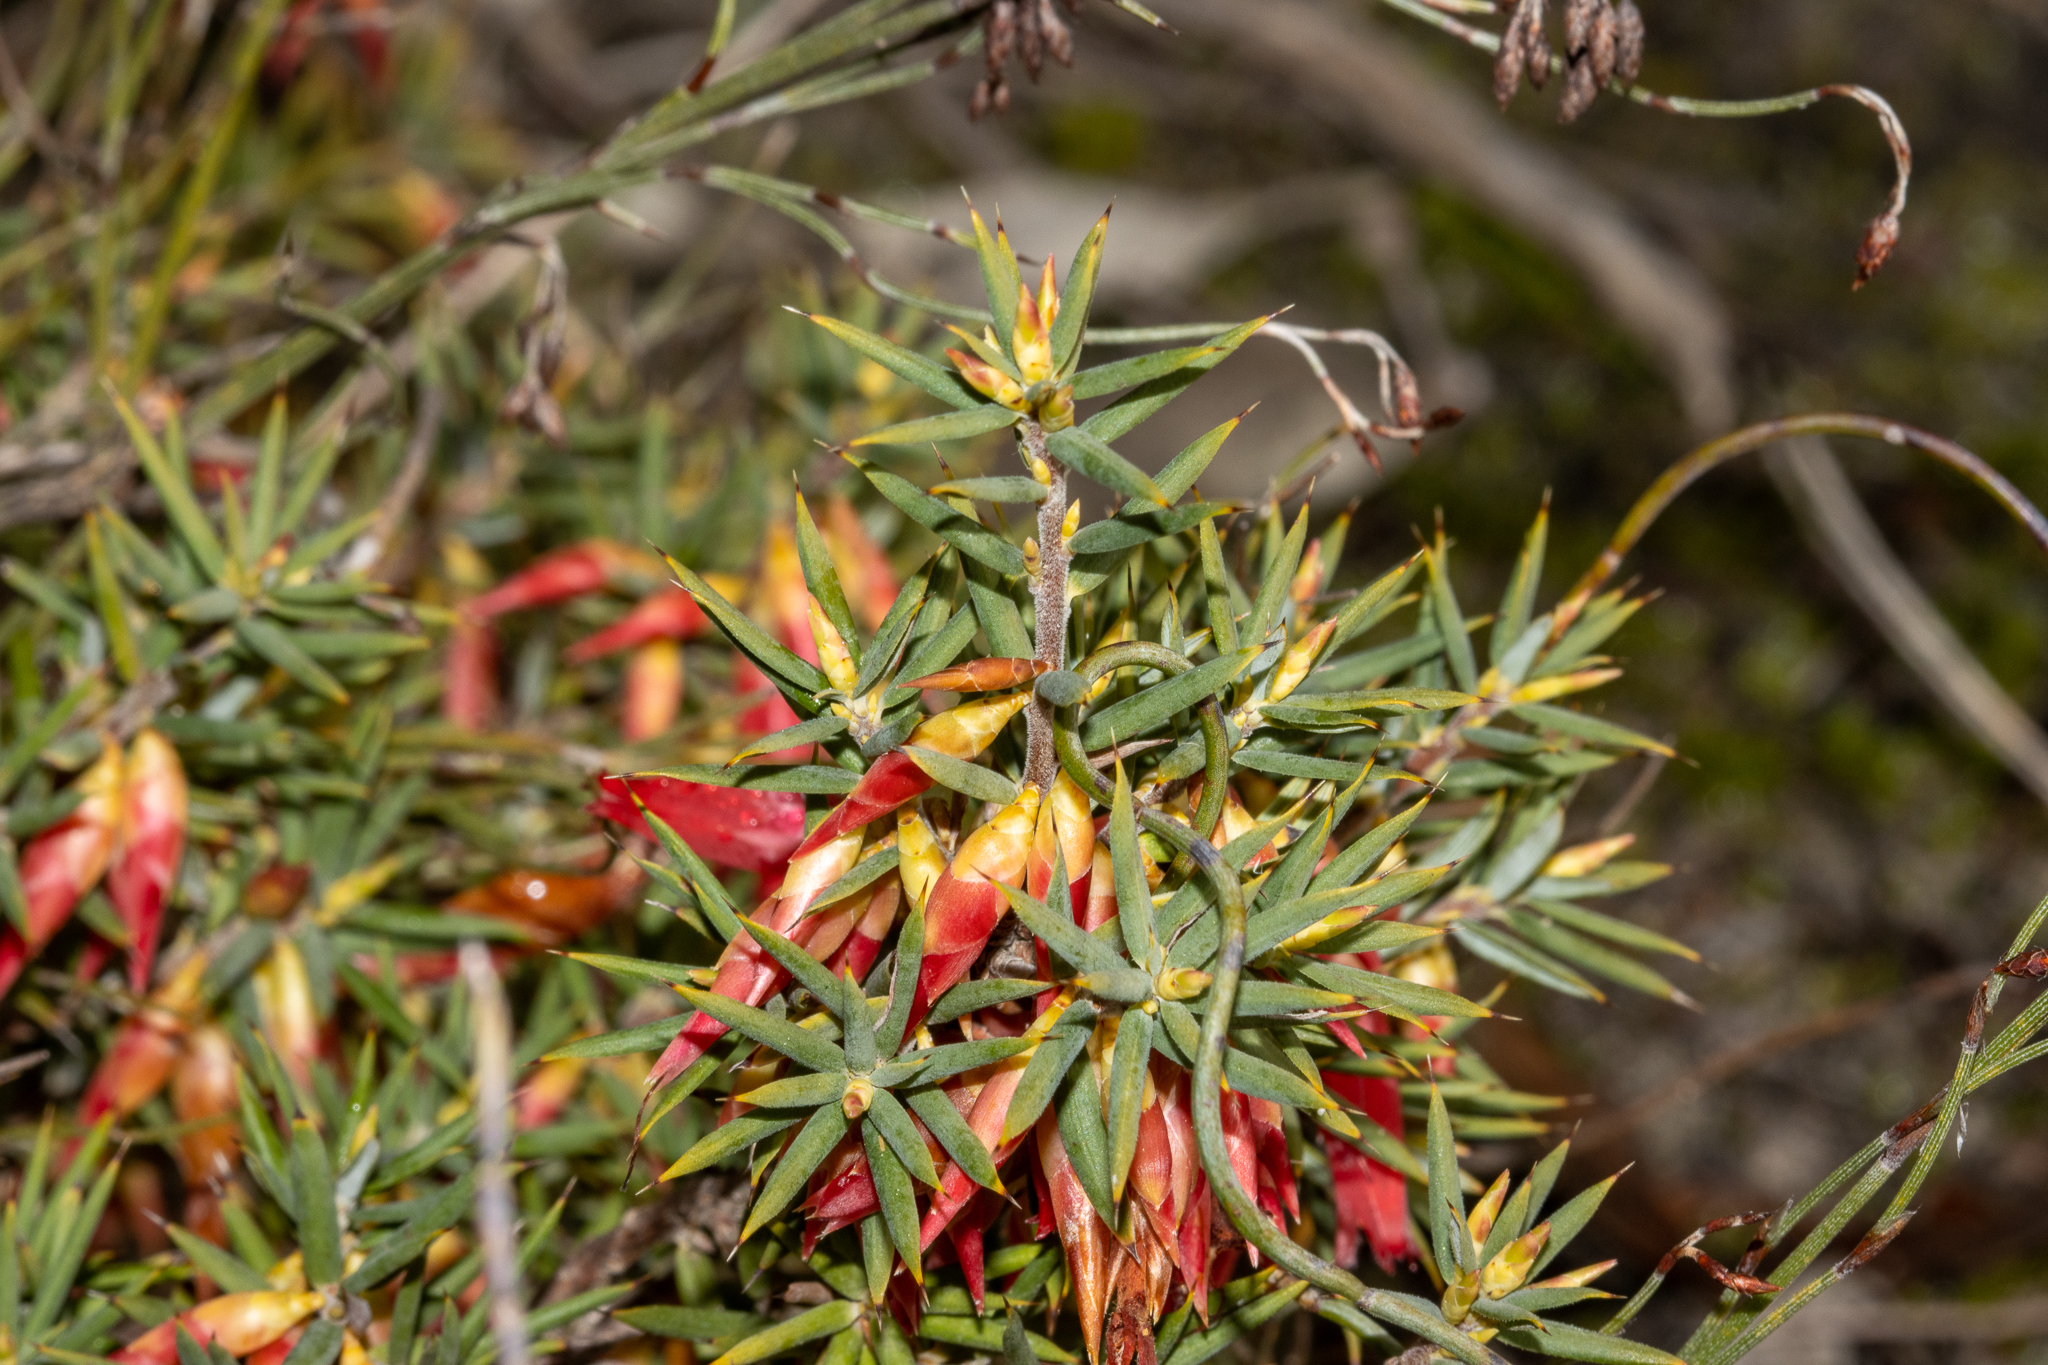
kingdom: Plantae
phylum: Tracheophyta
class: Magnoliopsida
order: Ericales
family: Ericaceae
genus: Stenanthera
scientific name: Stenanthera conostephioides
